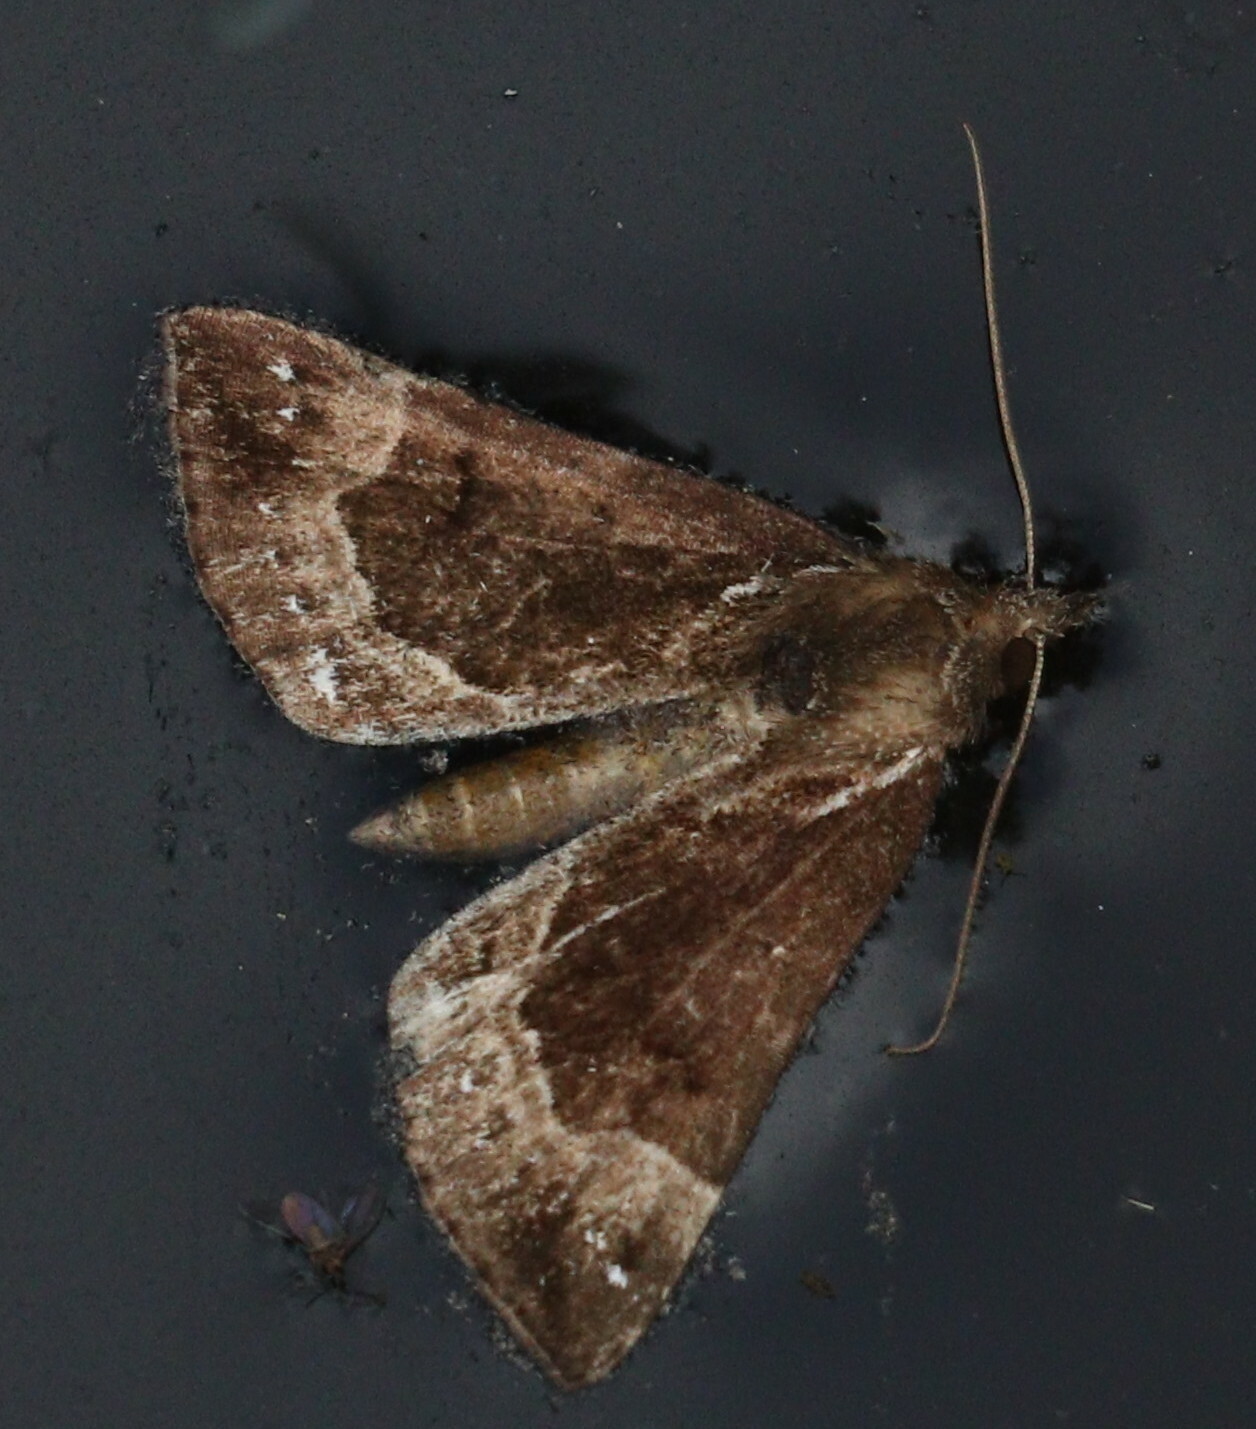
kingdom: Animalia
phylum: Arthropoda
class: Insecta
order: Lepidoptera
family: Erebidae
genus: Hypena
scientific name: Hypena crassalis
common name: Beautiful snout
